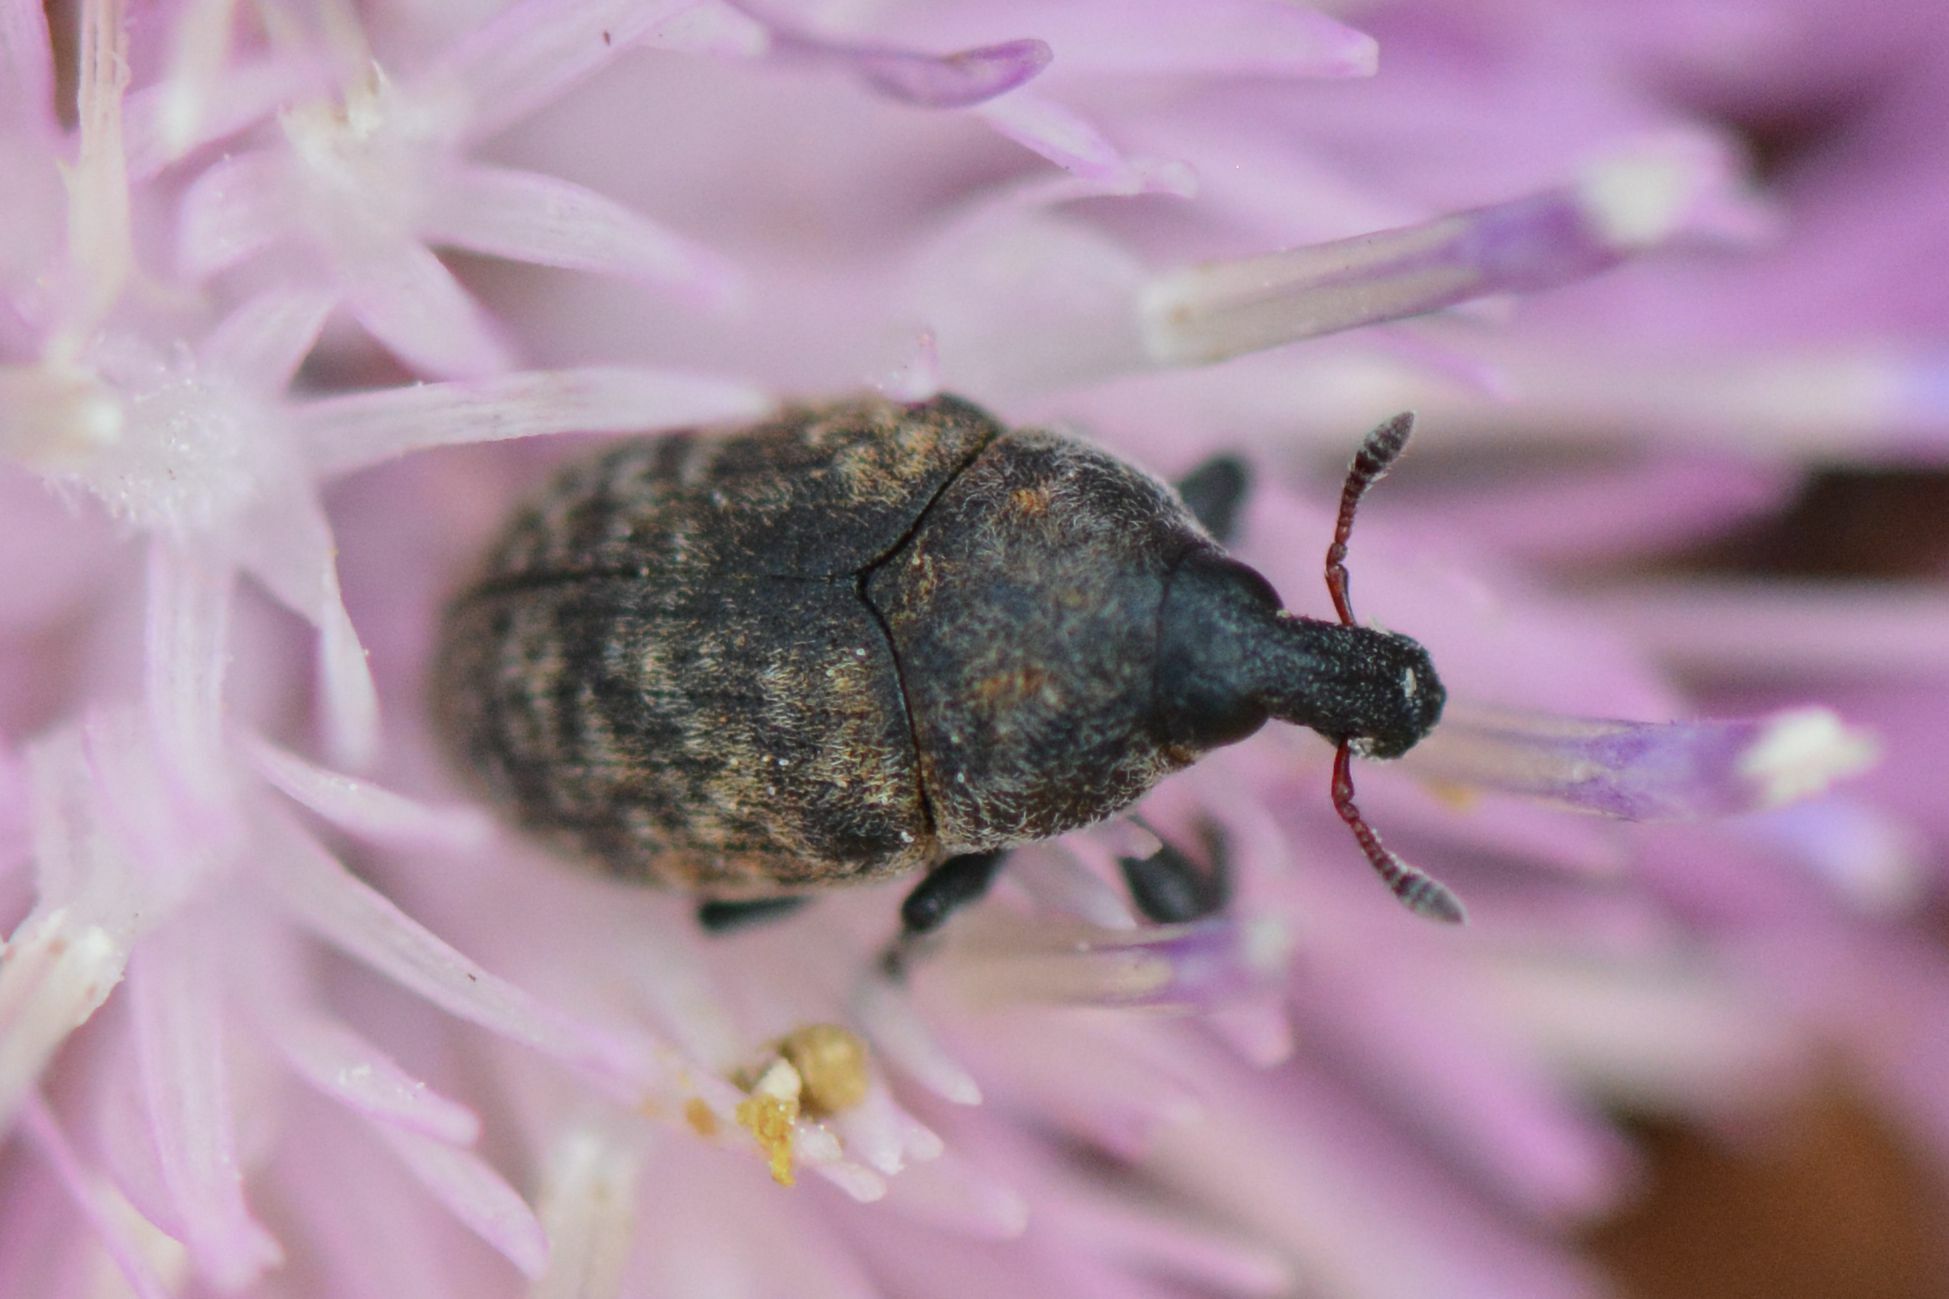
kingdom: Animalia
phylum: Arthropoda
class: Insecta
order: Coleoptera
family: Curculionidae
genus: Larinus
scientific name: Larinus obtusus
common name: Weevil
